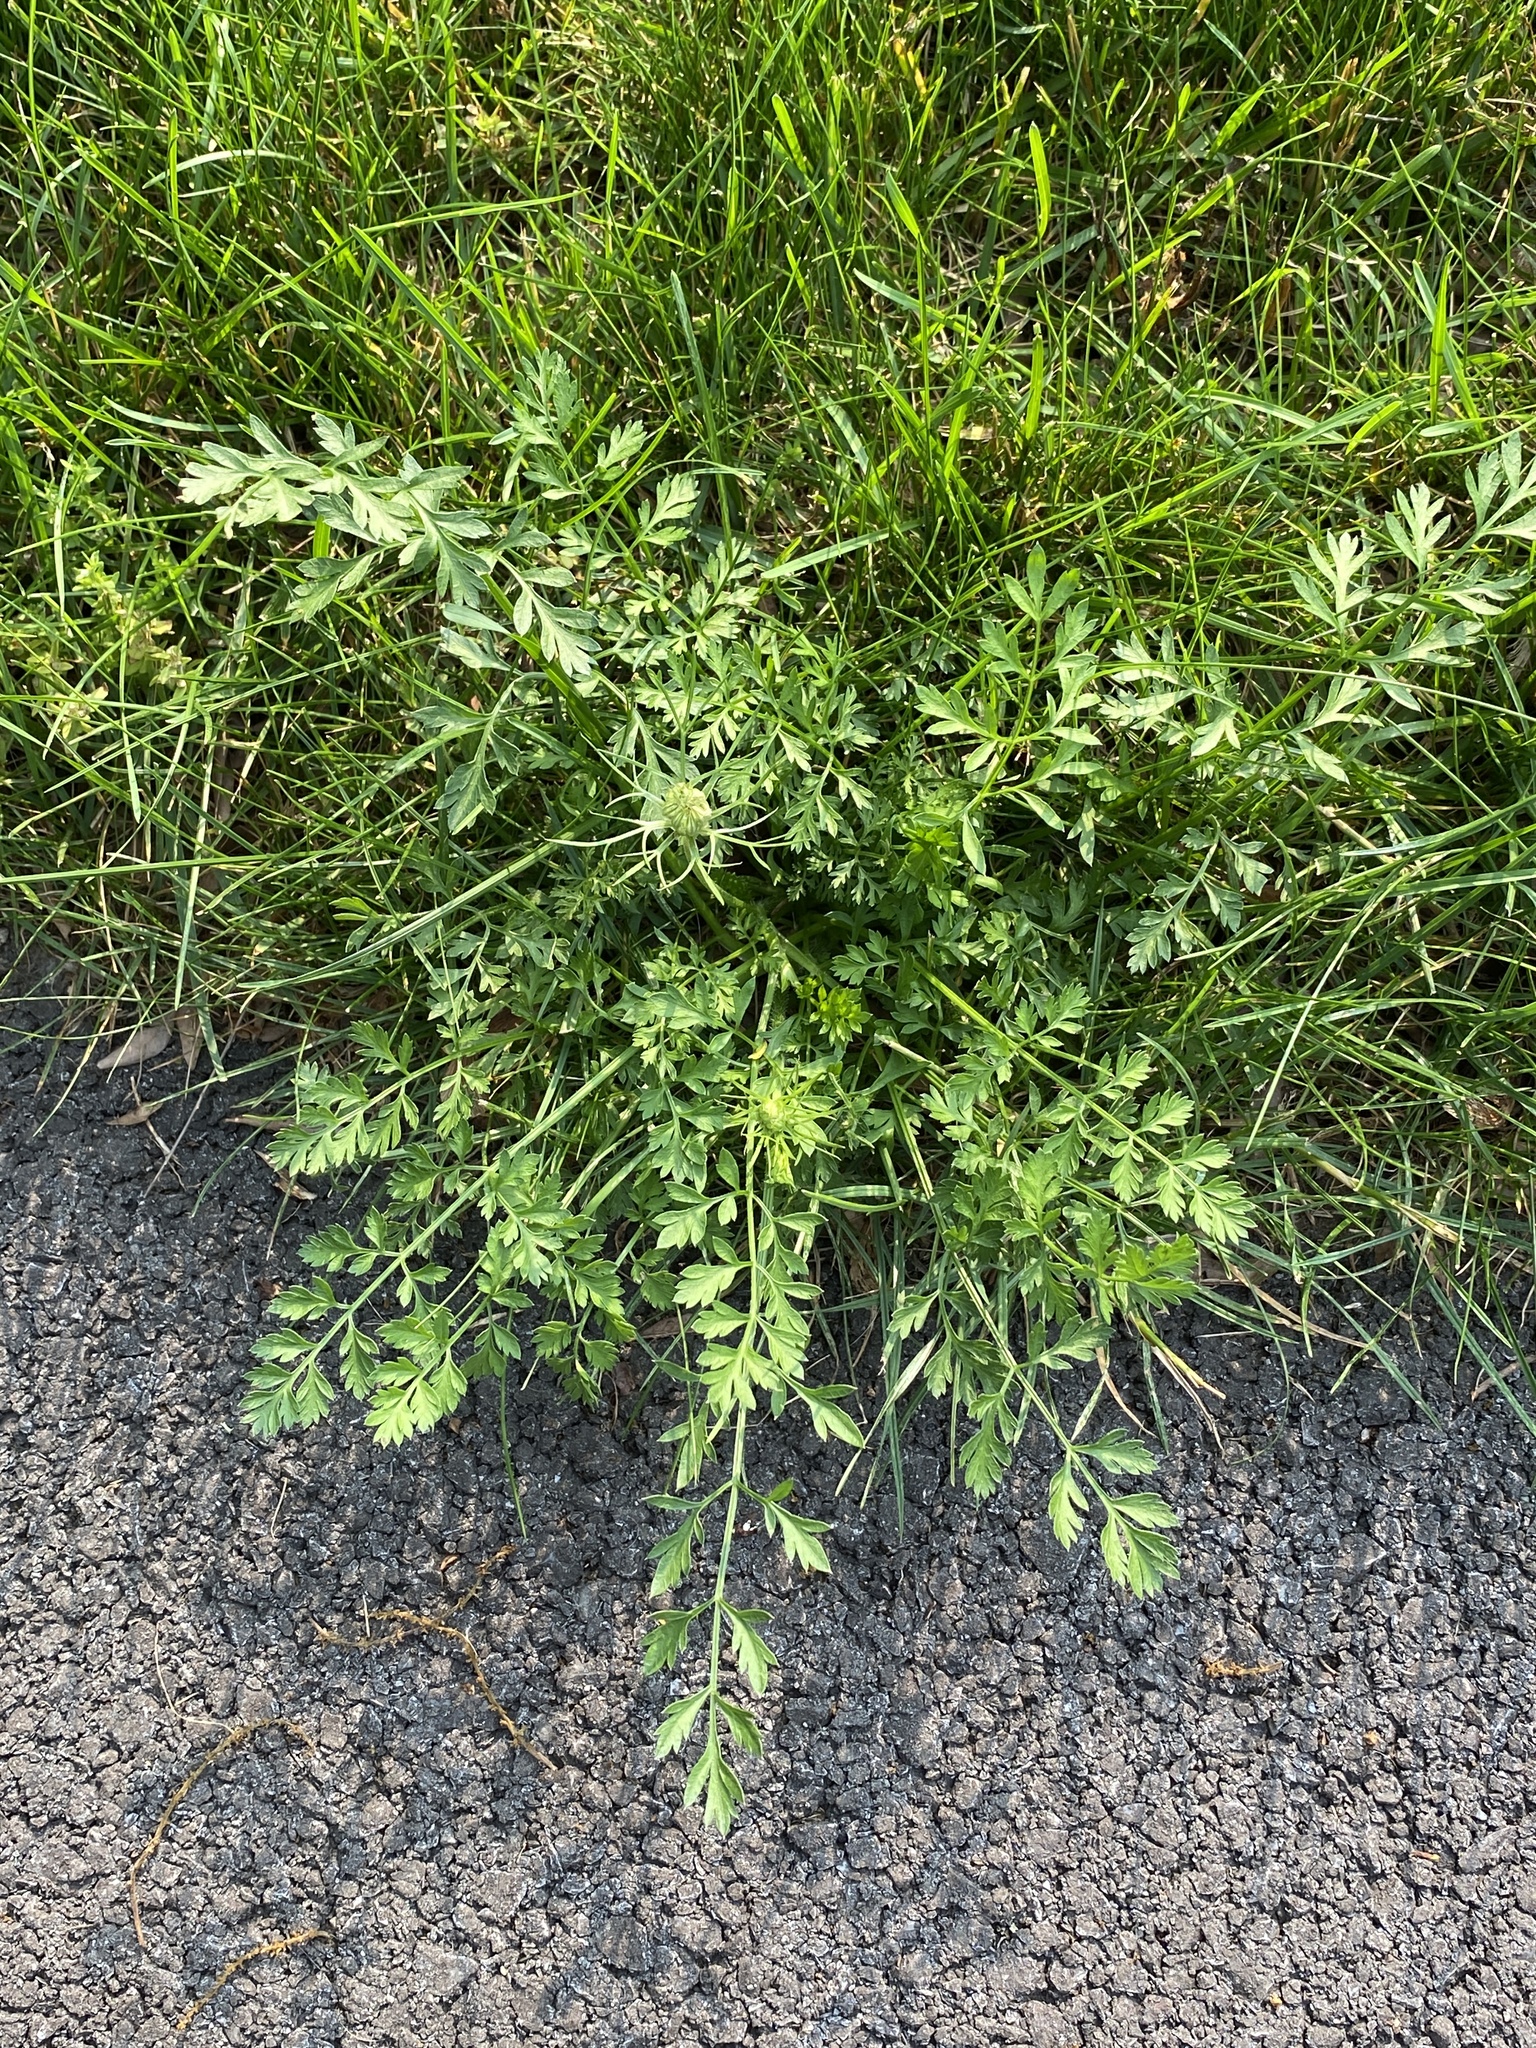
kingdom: Plantae
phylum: Tracheophyta
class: Magnoliopsida
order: Apiales
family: Apiaceae
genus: Daucus
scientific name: Daucus carota
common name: Wild carrot
